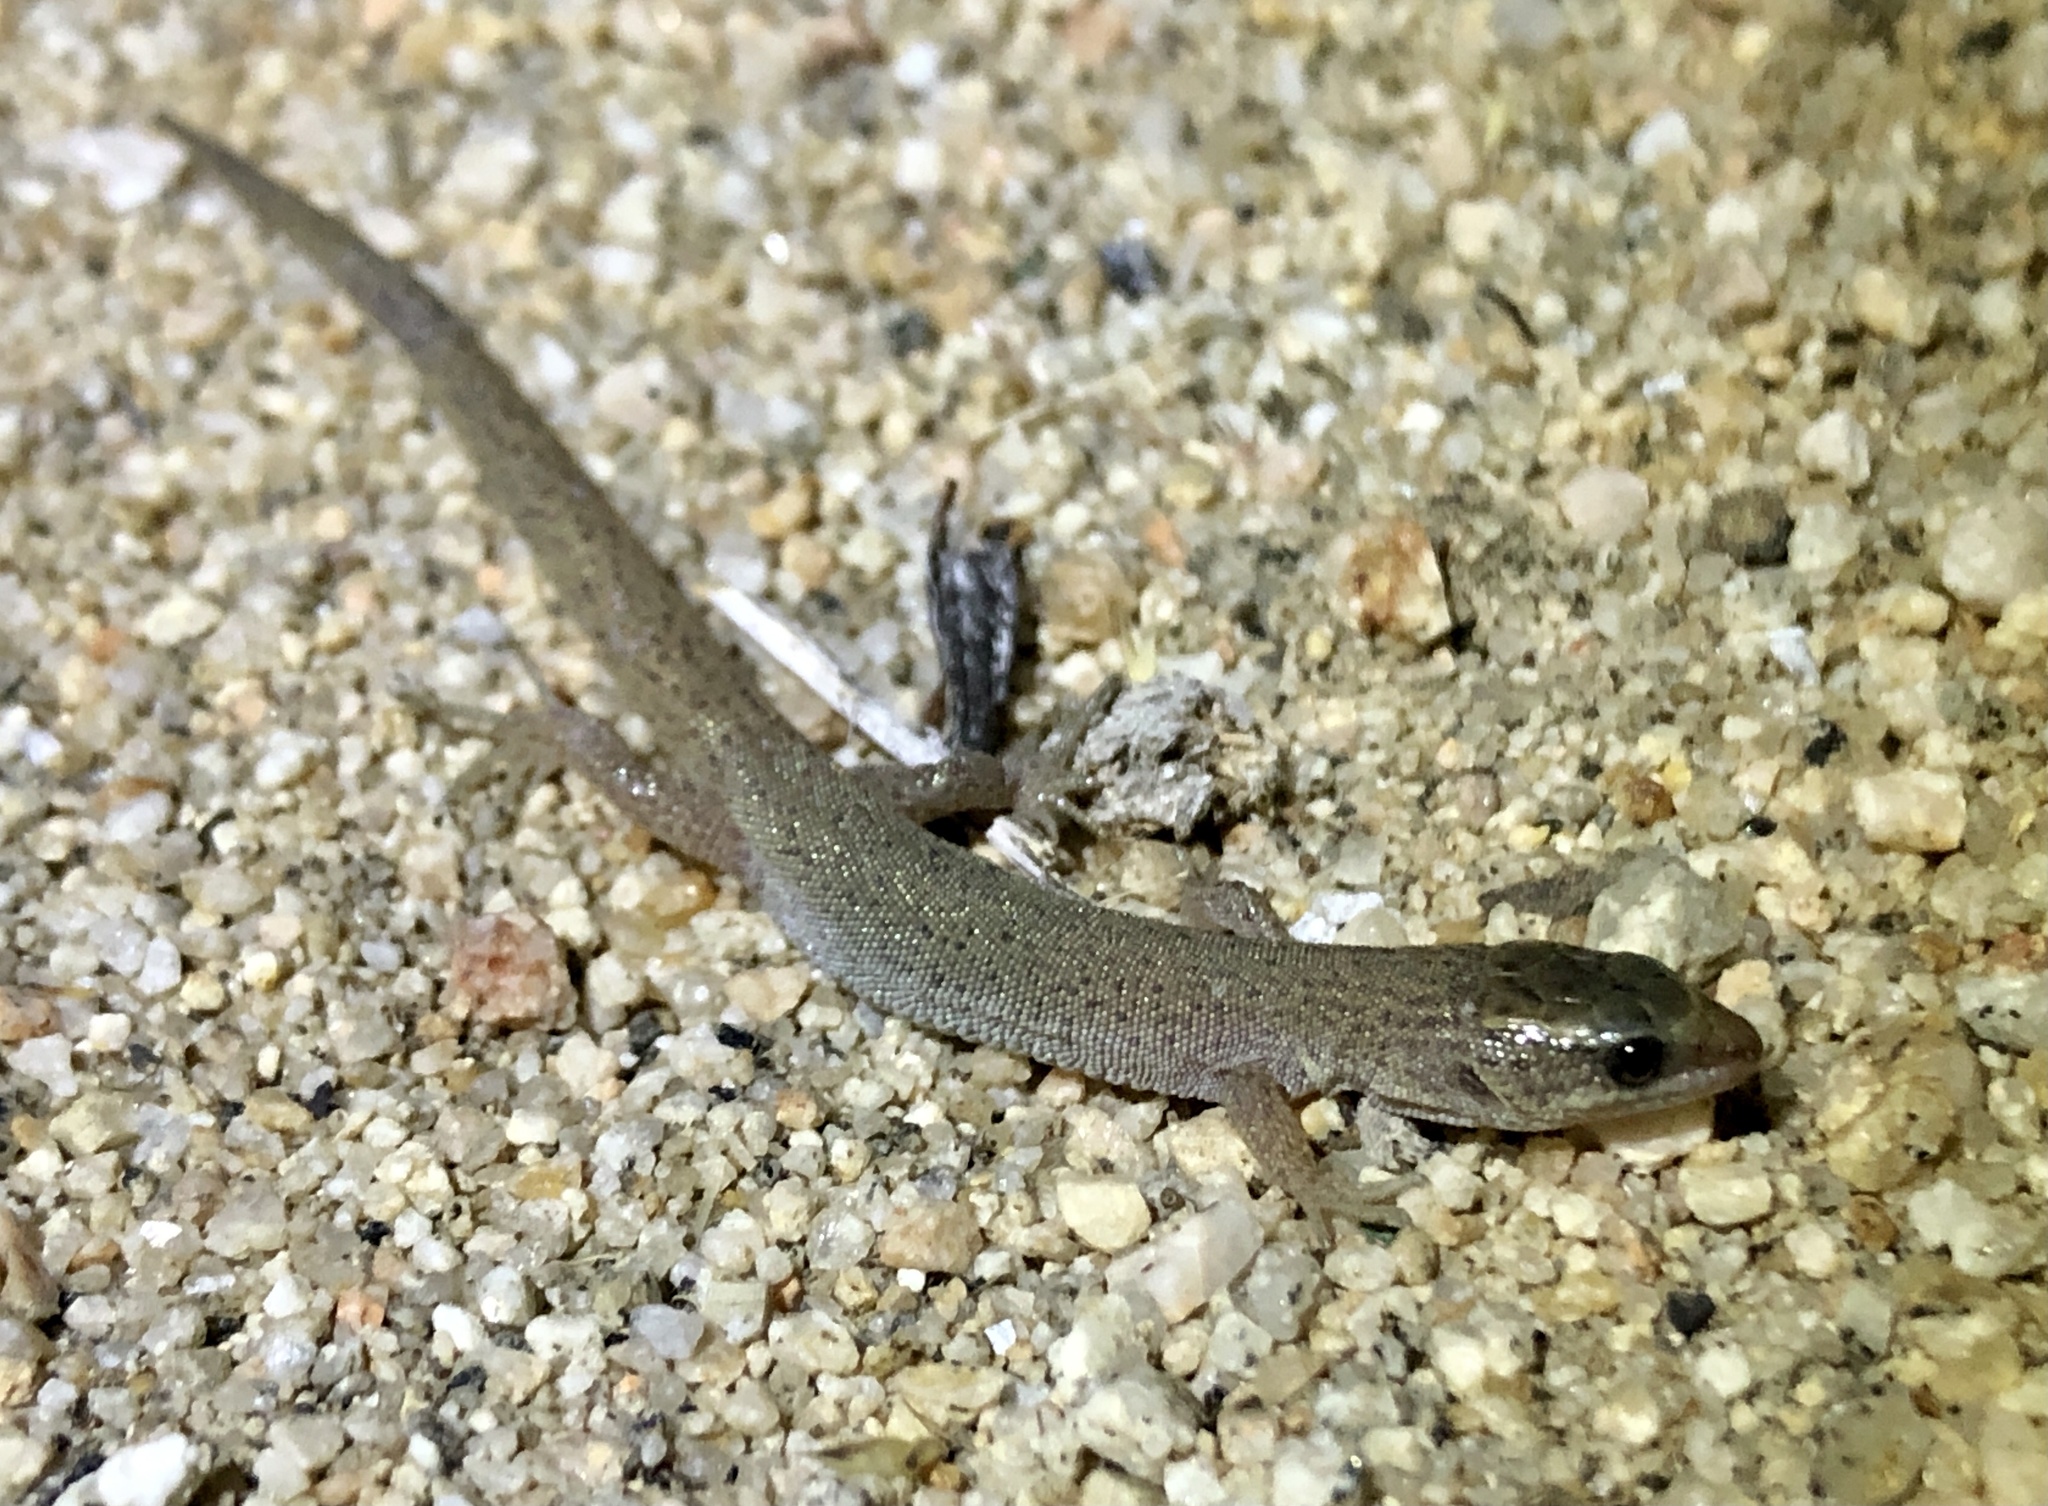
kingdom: Animalia
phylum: Chordata
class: Squamata
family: Xantusiidae
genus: Xantusia
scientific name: Xantusia vigilis
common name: Desert night lizard
